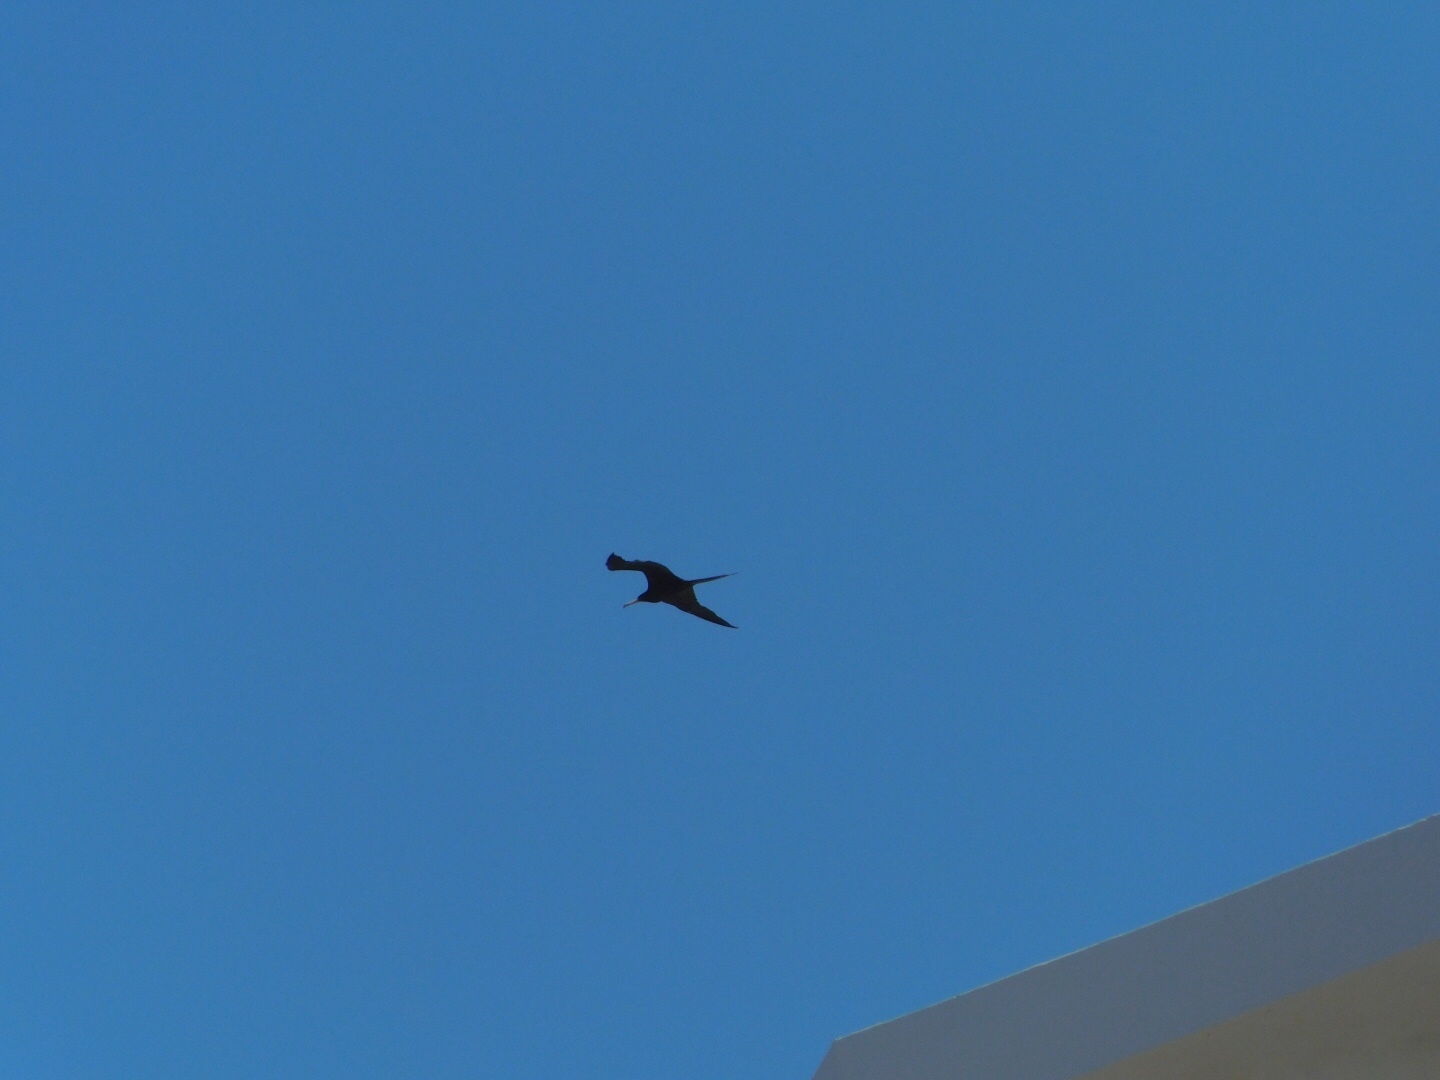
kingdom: Animalia
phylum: Chordata
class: Aves
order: Suliformes
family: Fregatidae
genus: Fregata
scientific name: Fregata magnificens
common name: Magnificent frigatebird
